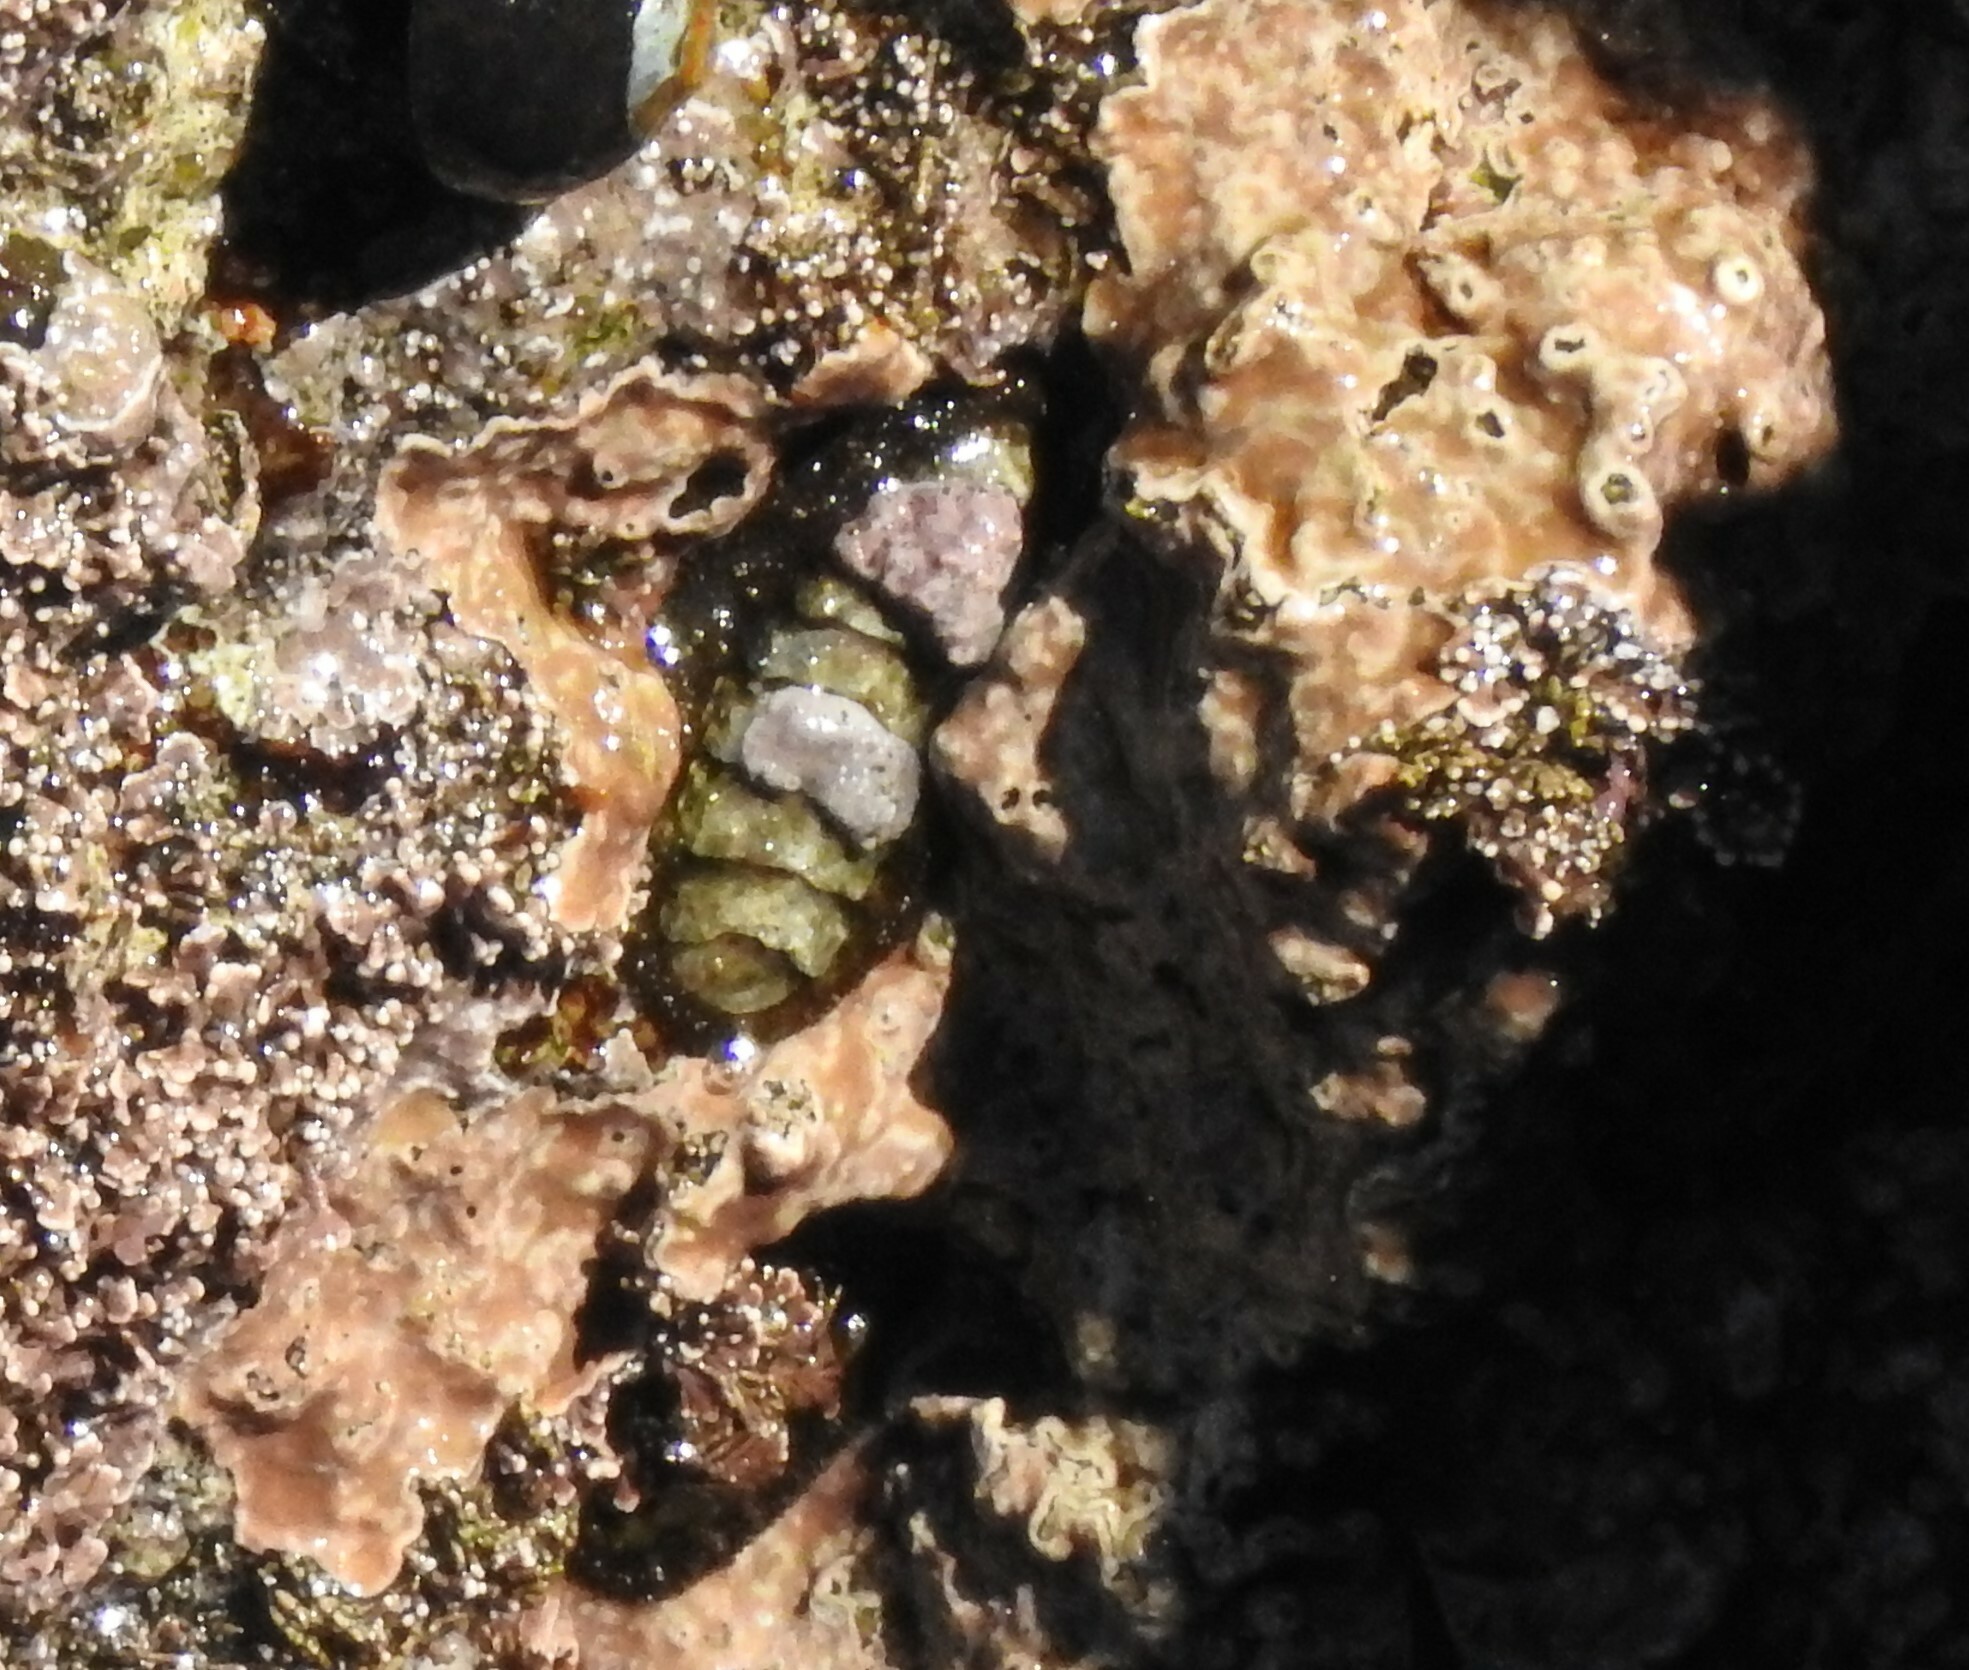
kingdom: Animalia
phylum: Mollusca
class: Polyplacophora
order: Chitonida
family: Tonicellidae
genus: Nuttallina
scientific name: Nuttallina californica
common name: California nuttall chiton
